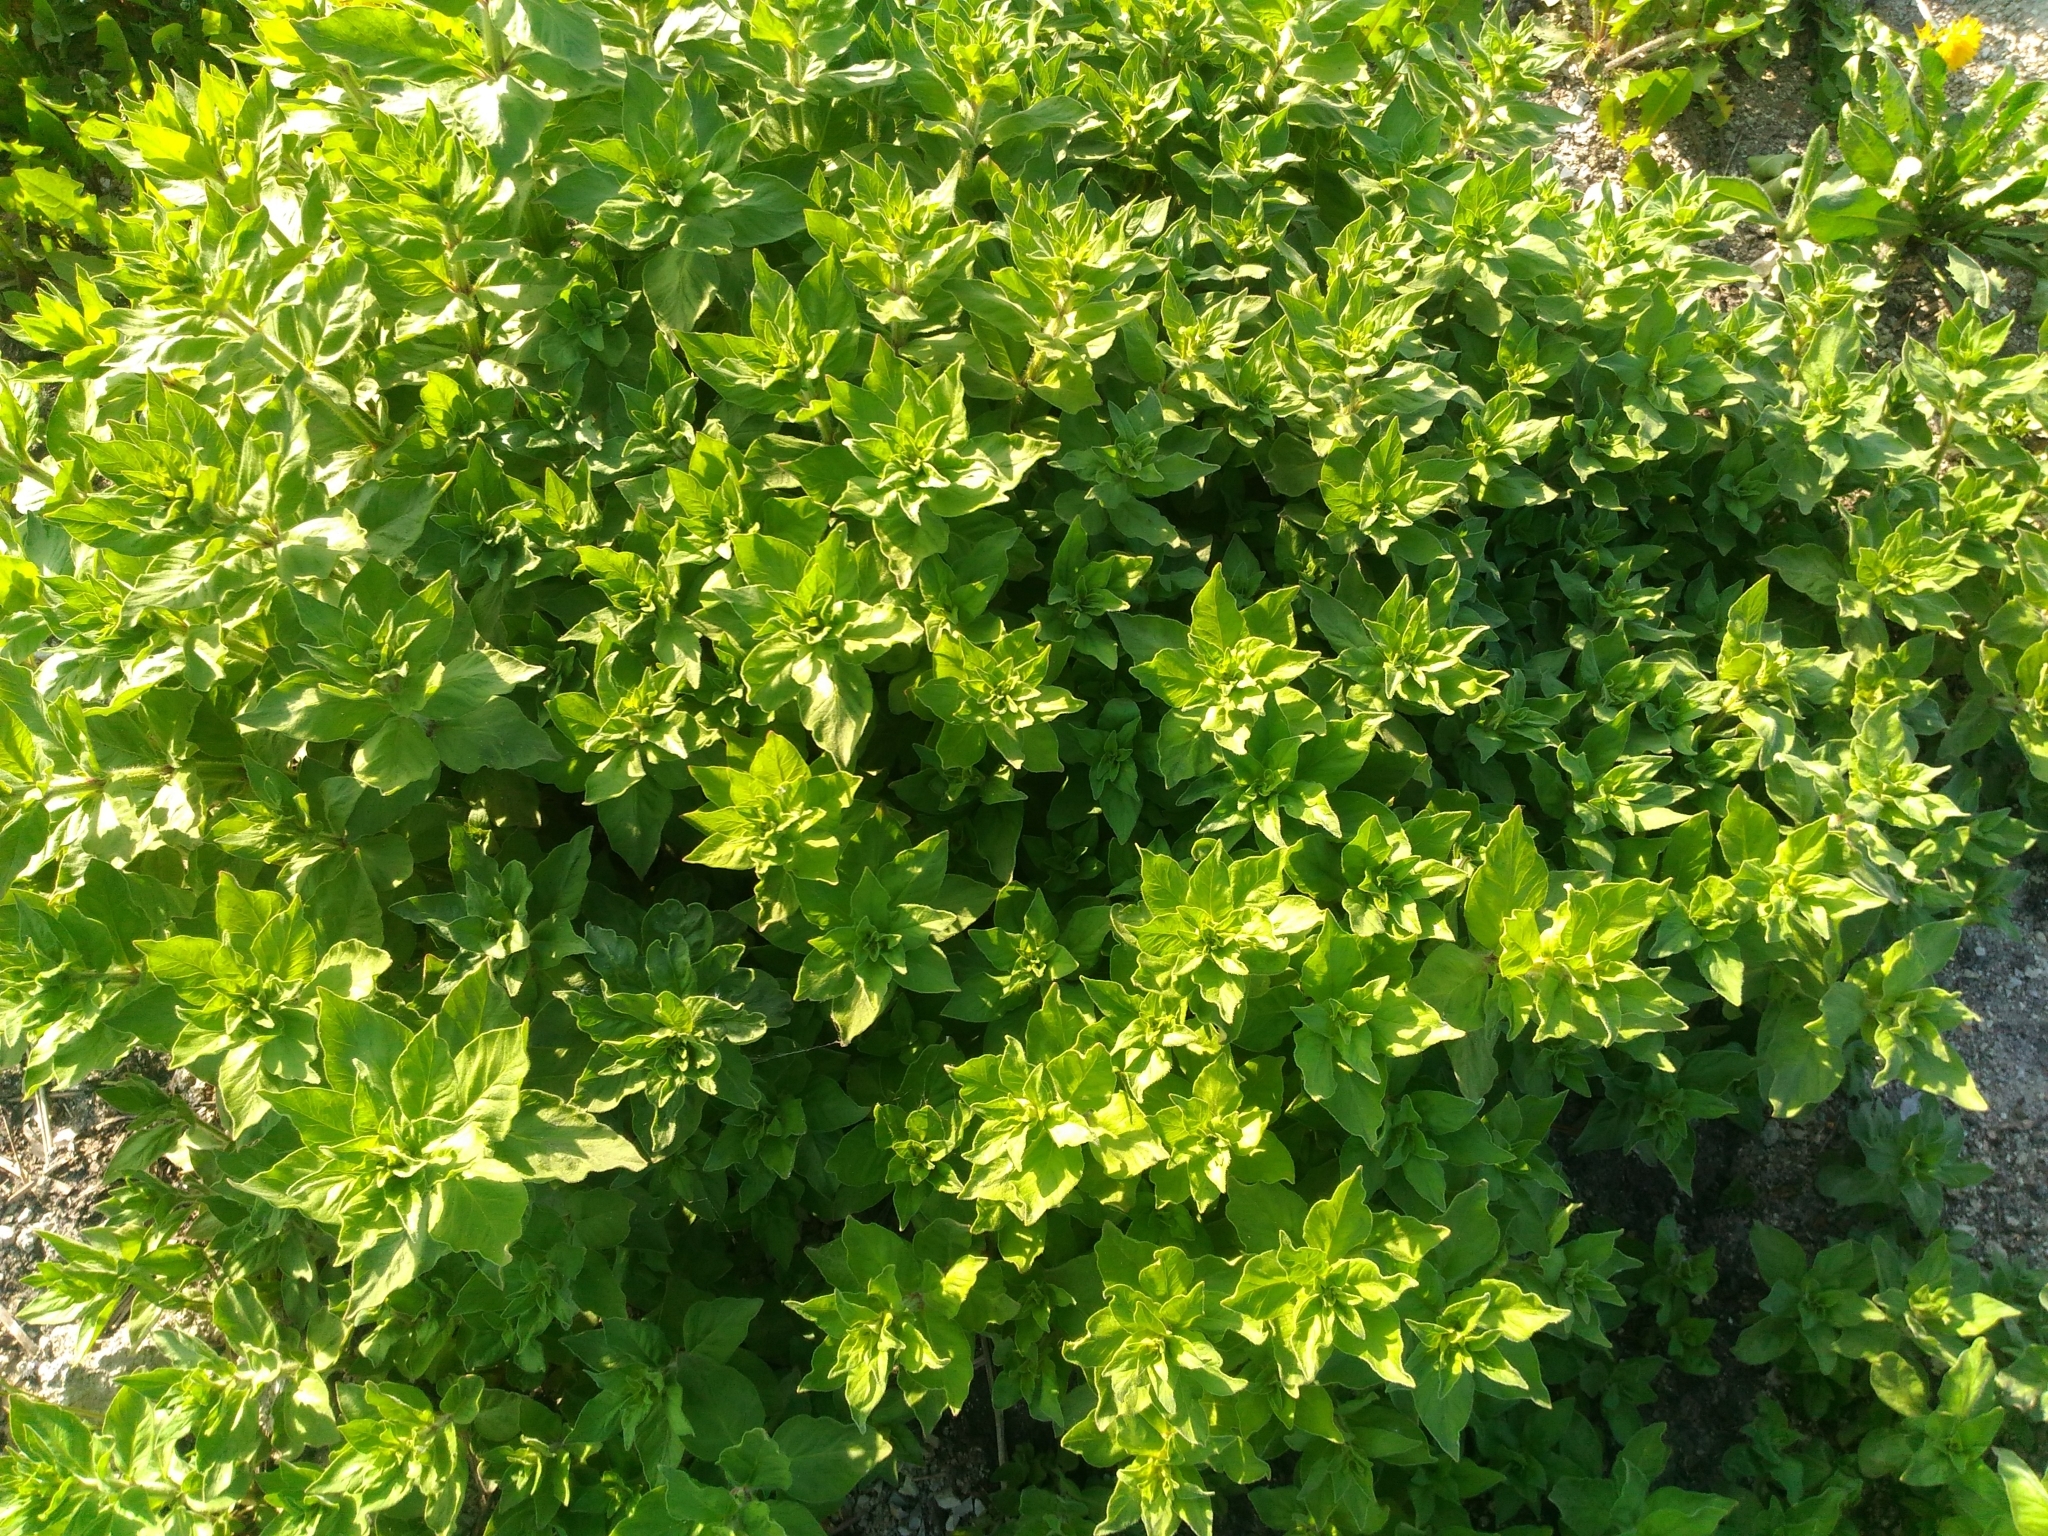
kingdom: Plantae
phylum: Tracheophyta
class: Magnoliopsida
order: Ericales
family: Primulaceae
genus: Lysimachia
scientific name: Lysimachia punctata
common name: Dotted loosestrife
